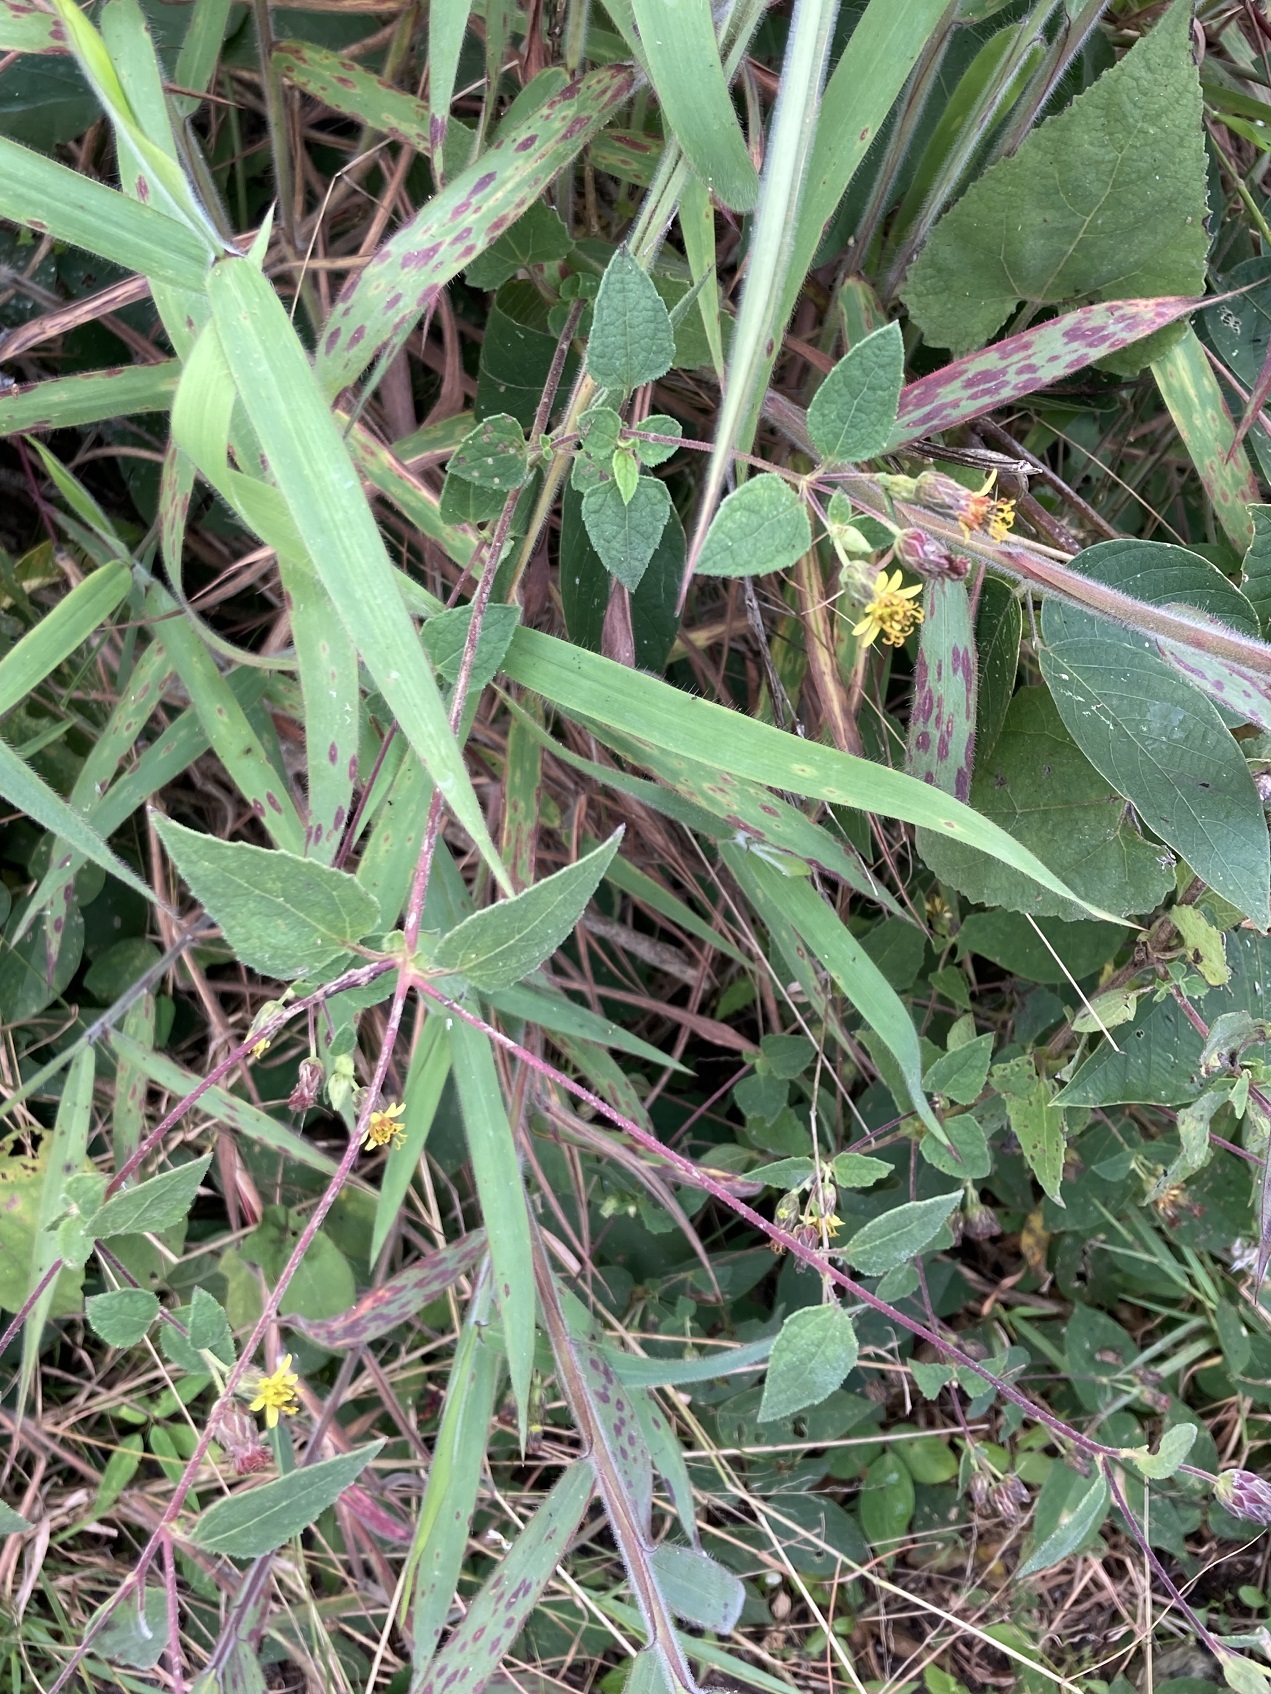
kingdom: Plantae
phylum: Tracheophyta
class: Magnoliopsida
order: Asterales
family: Asteraceae
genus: Calea
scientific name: Calea jamaicensis
